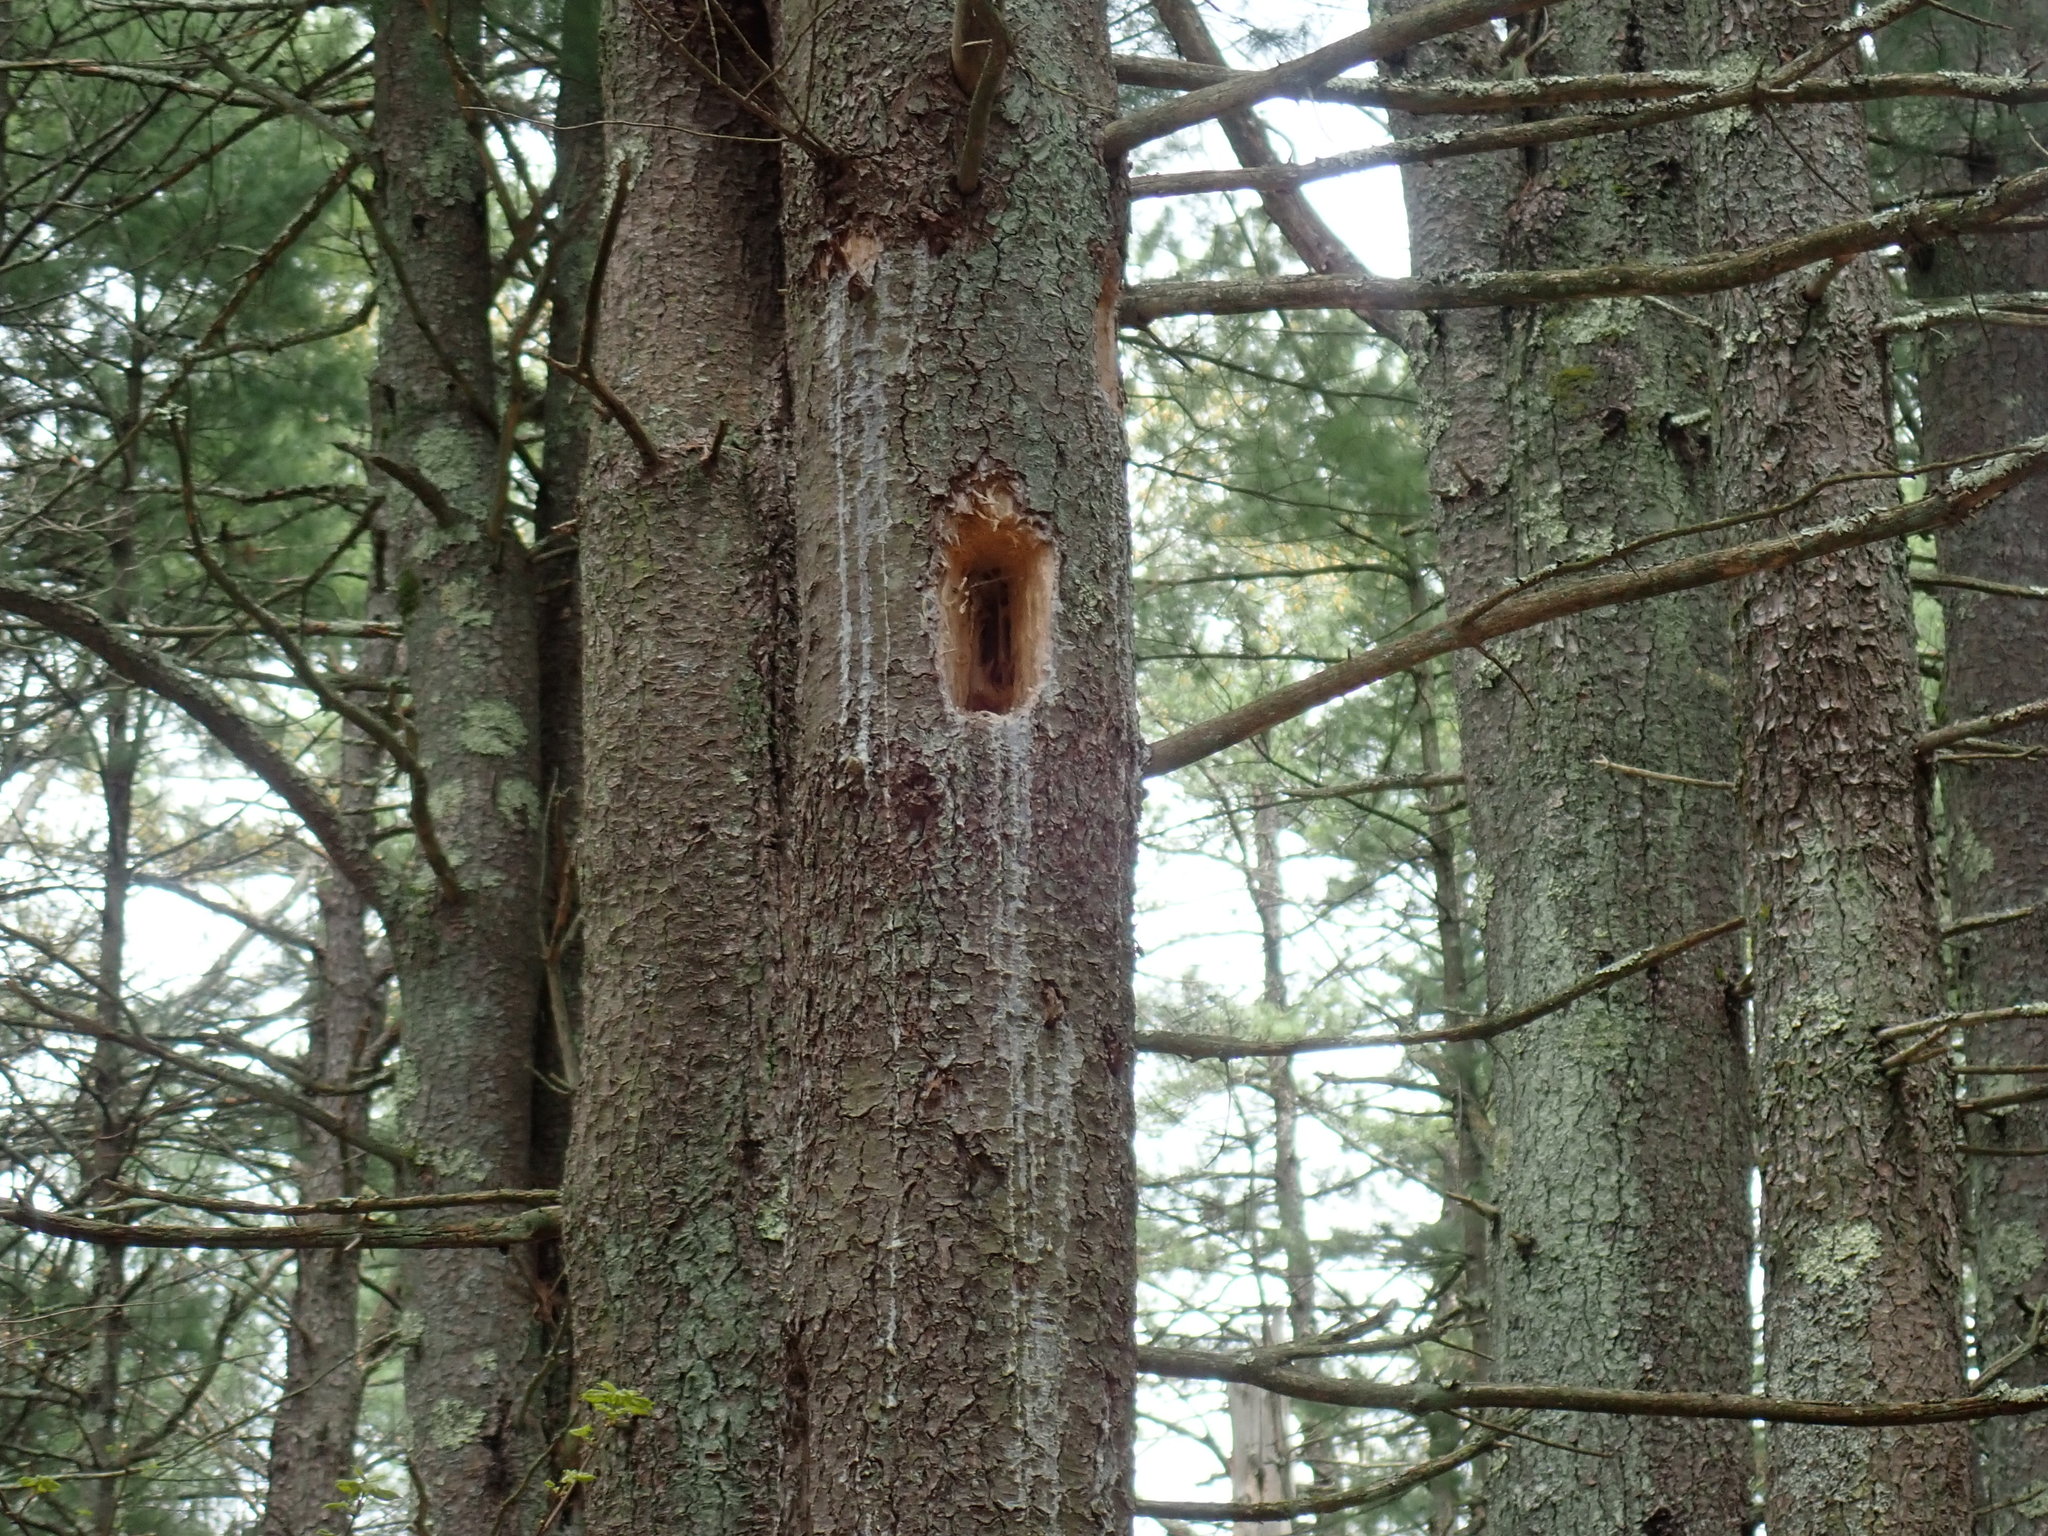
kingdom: Animalia
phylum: Chordata
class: Aves
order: Piciformes
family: Picidae
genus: Dryocopus
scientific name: Dryocopus pileatus
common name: Pileated woodpecker
